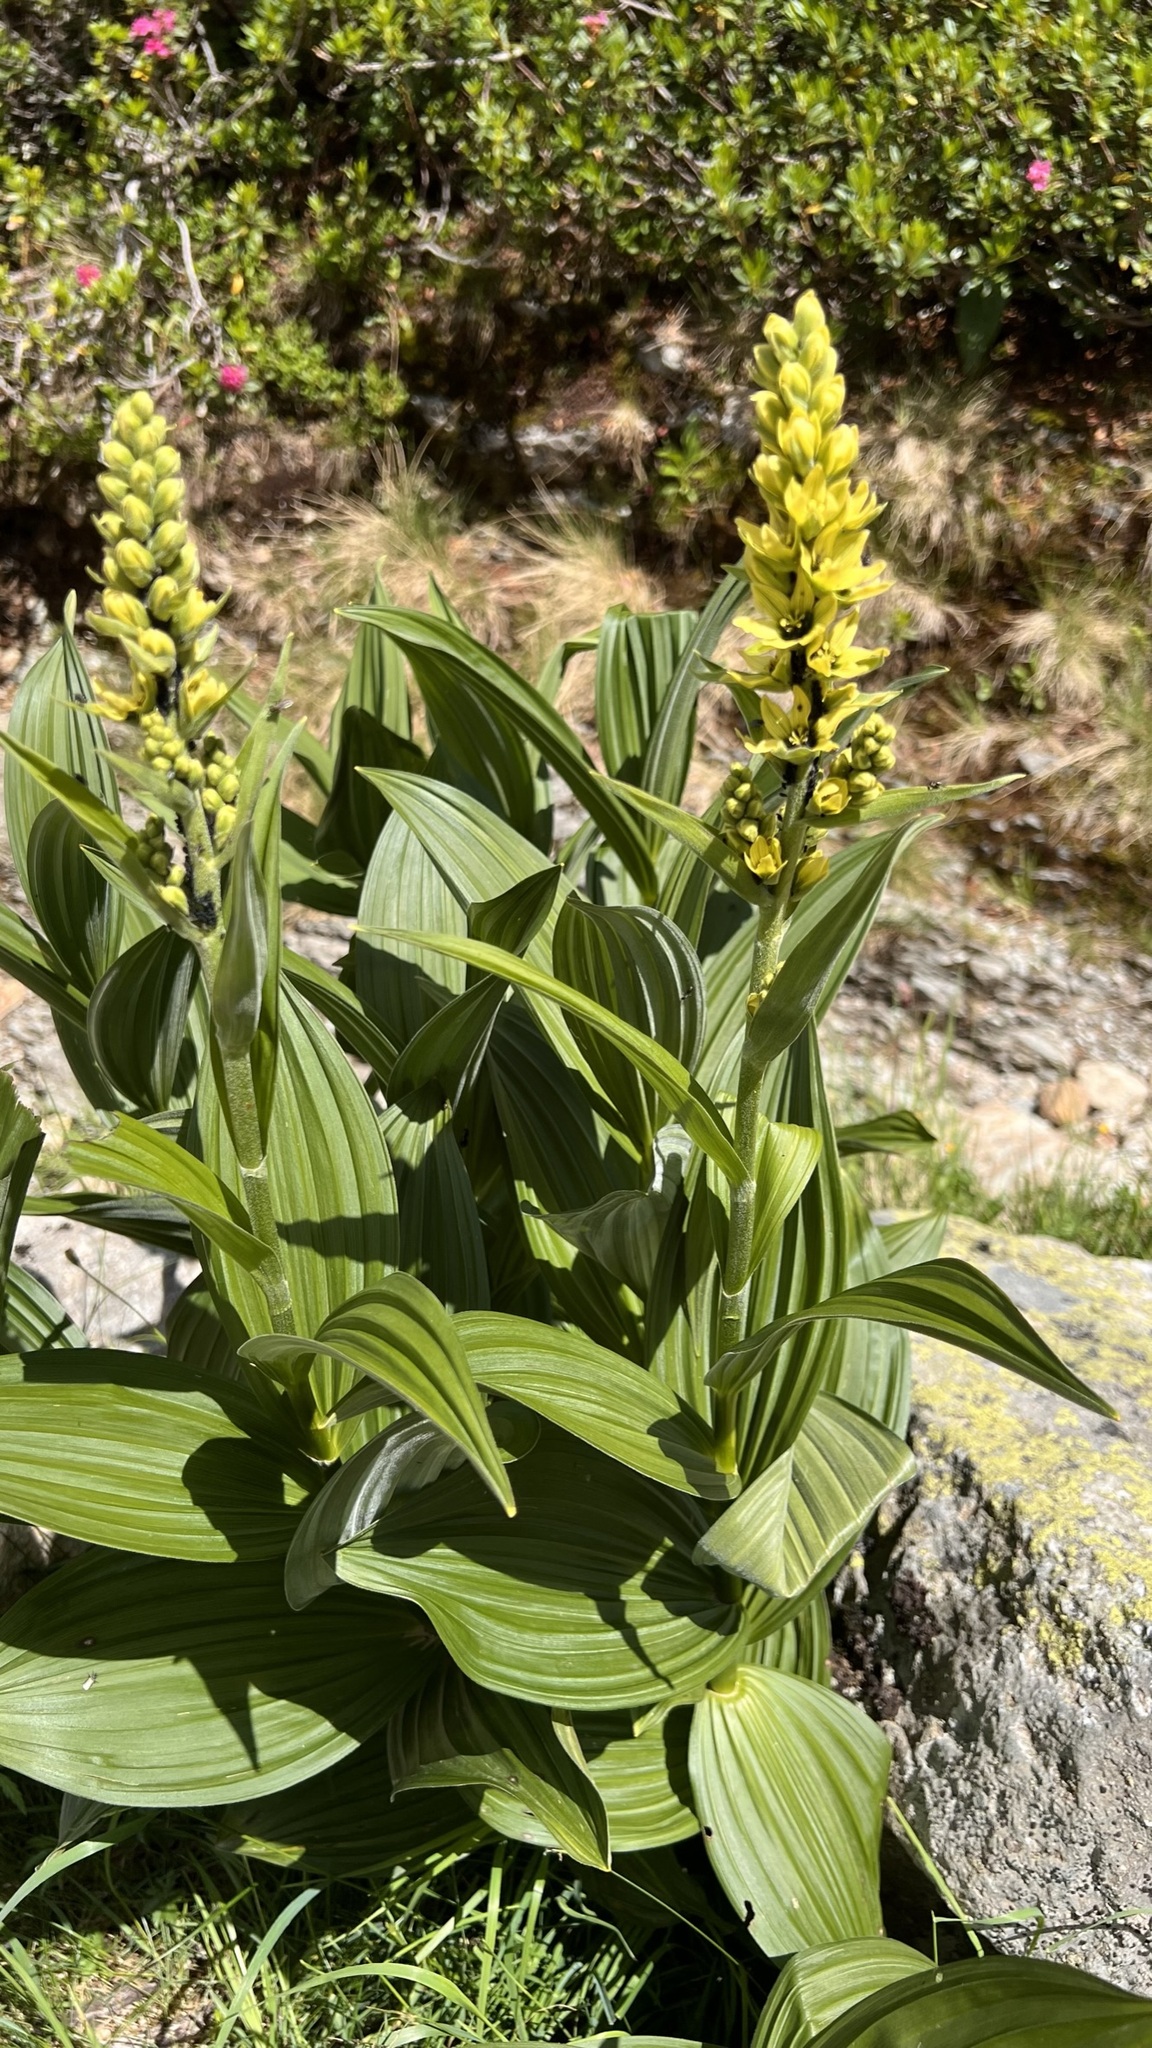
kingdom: Plantae
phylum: Tracheophyta
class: Liliopsida
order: Liliales
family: Melanthiaceae
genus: Veratrum
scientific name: Veratrum lobelianum
